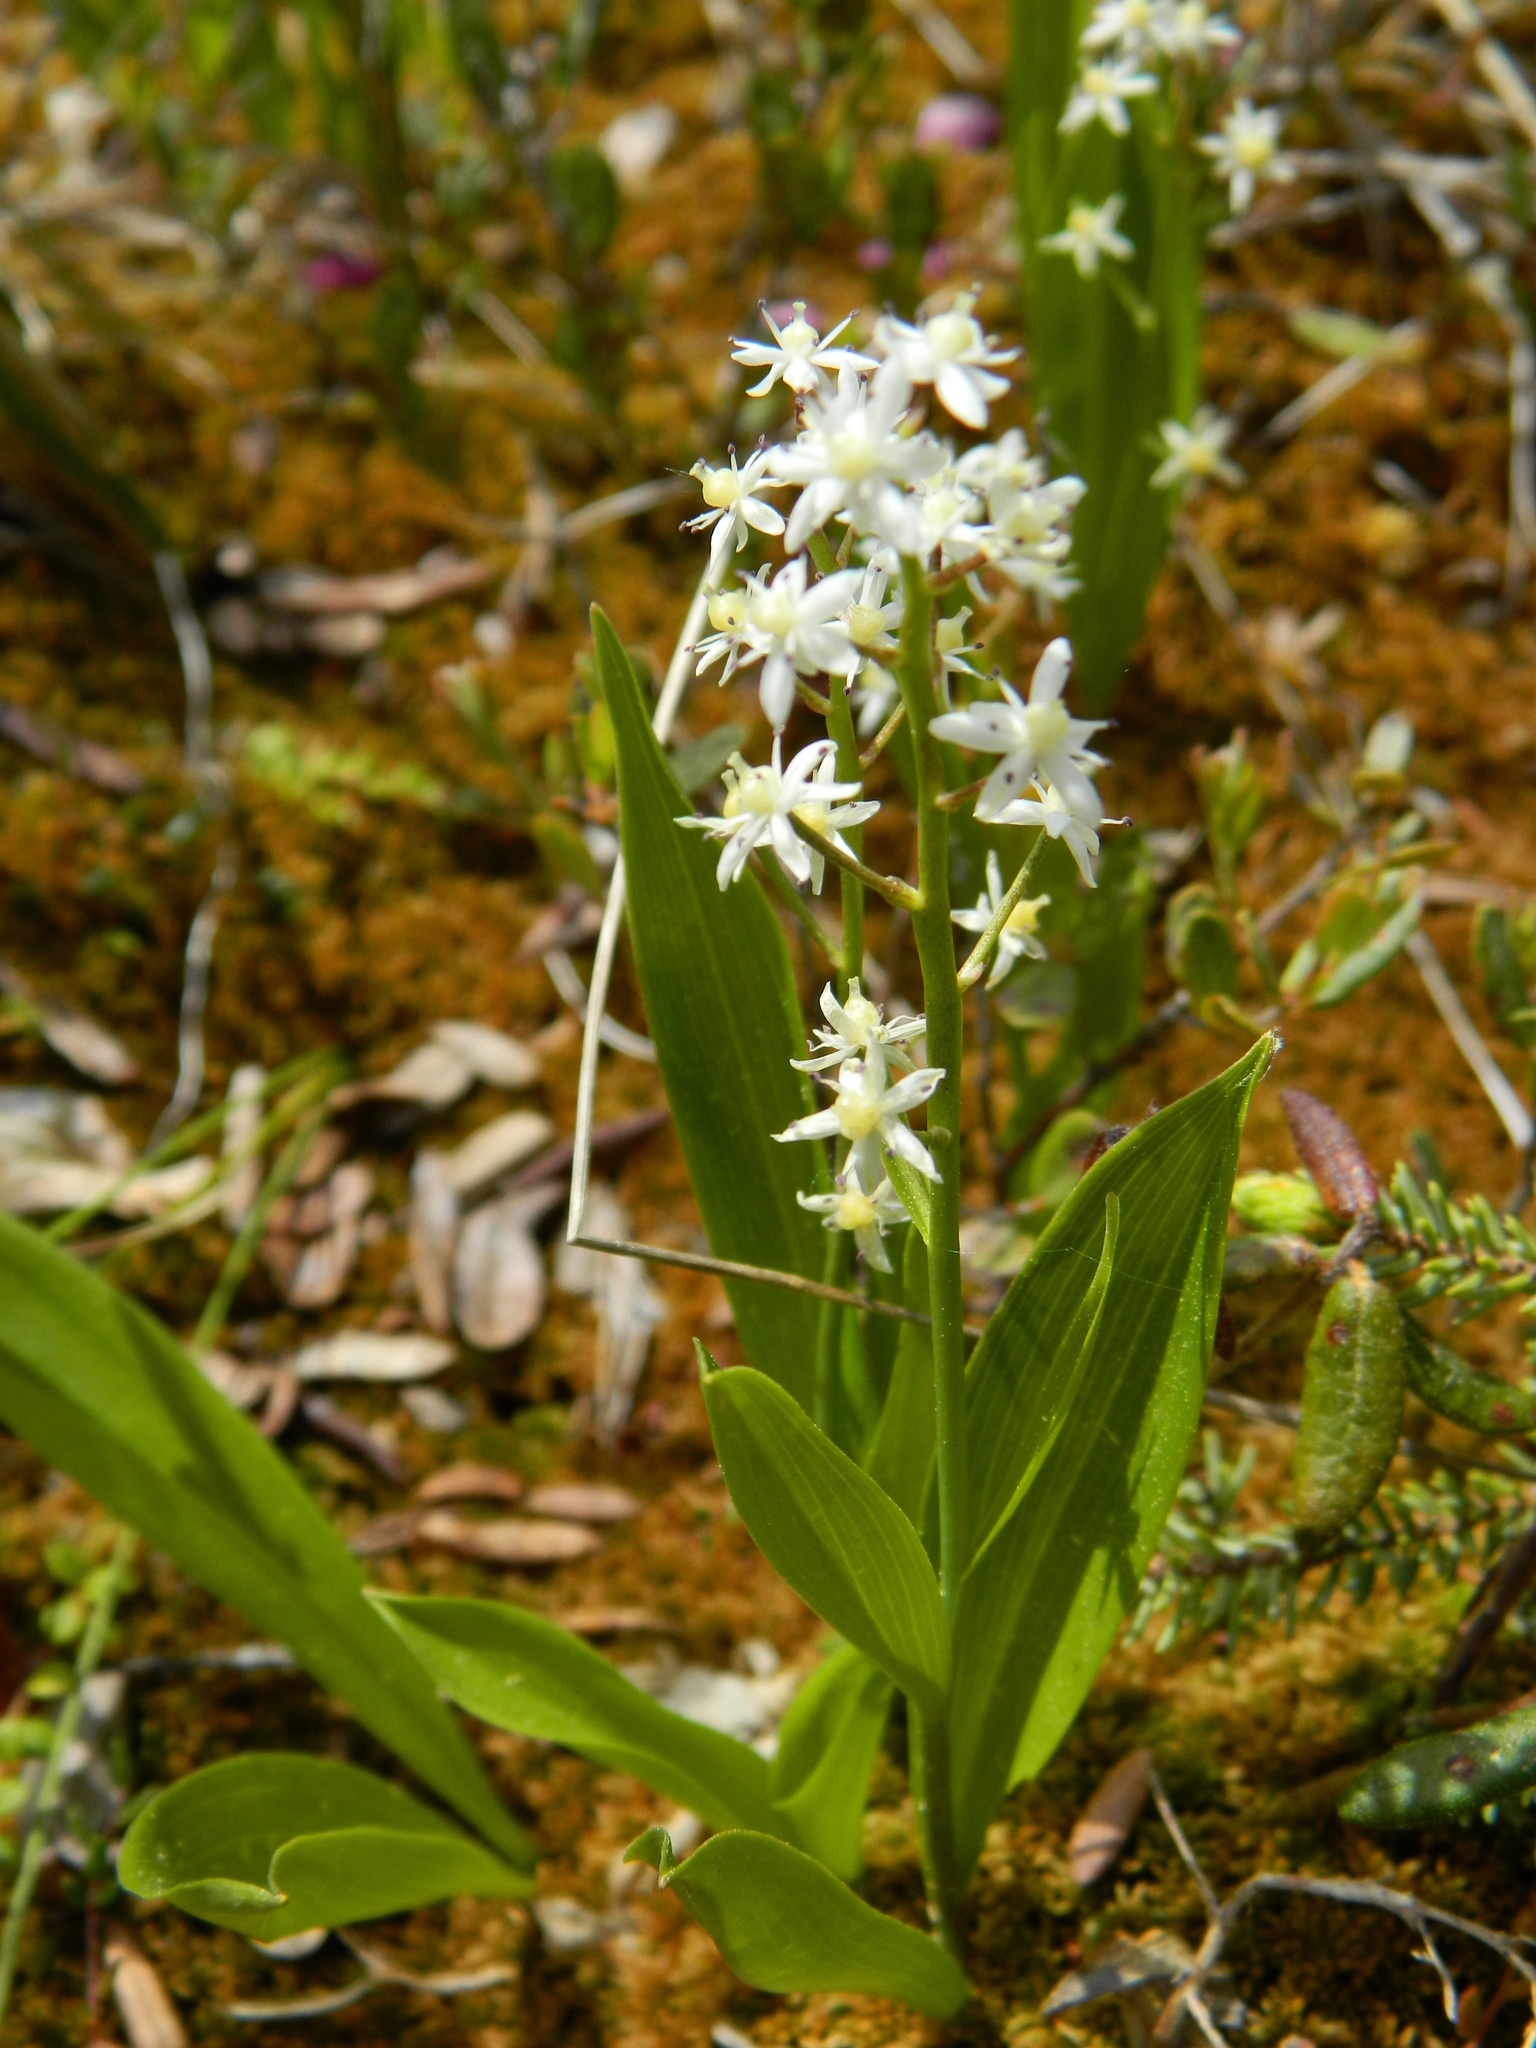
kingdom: Plantae
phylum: Tracheophyta
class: Liliopsida
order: Asparagales
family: Asparagaceae
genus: Maianthemum
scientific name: Maianthemum trifolium
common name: Swamp false solomon's seal
